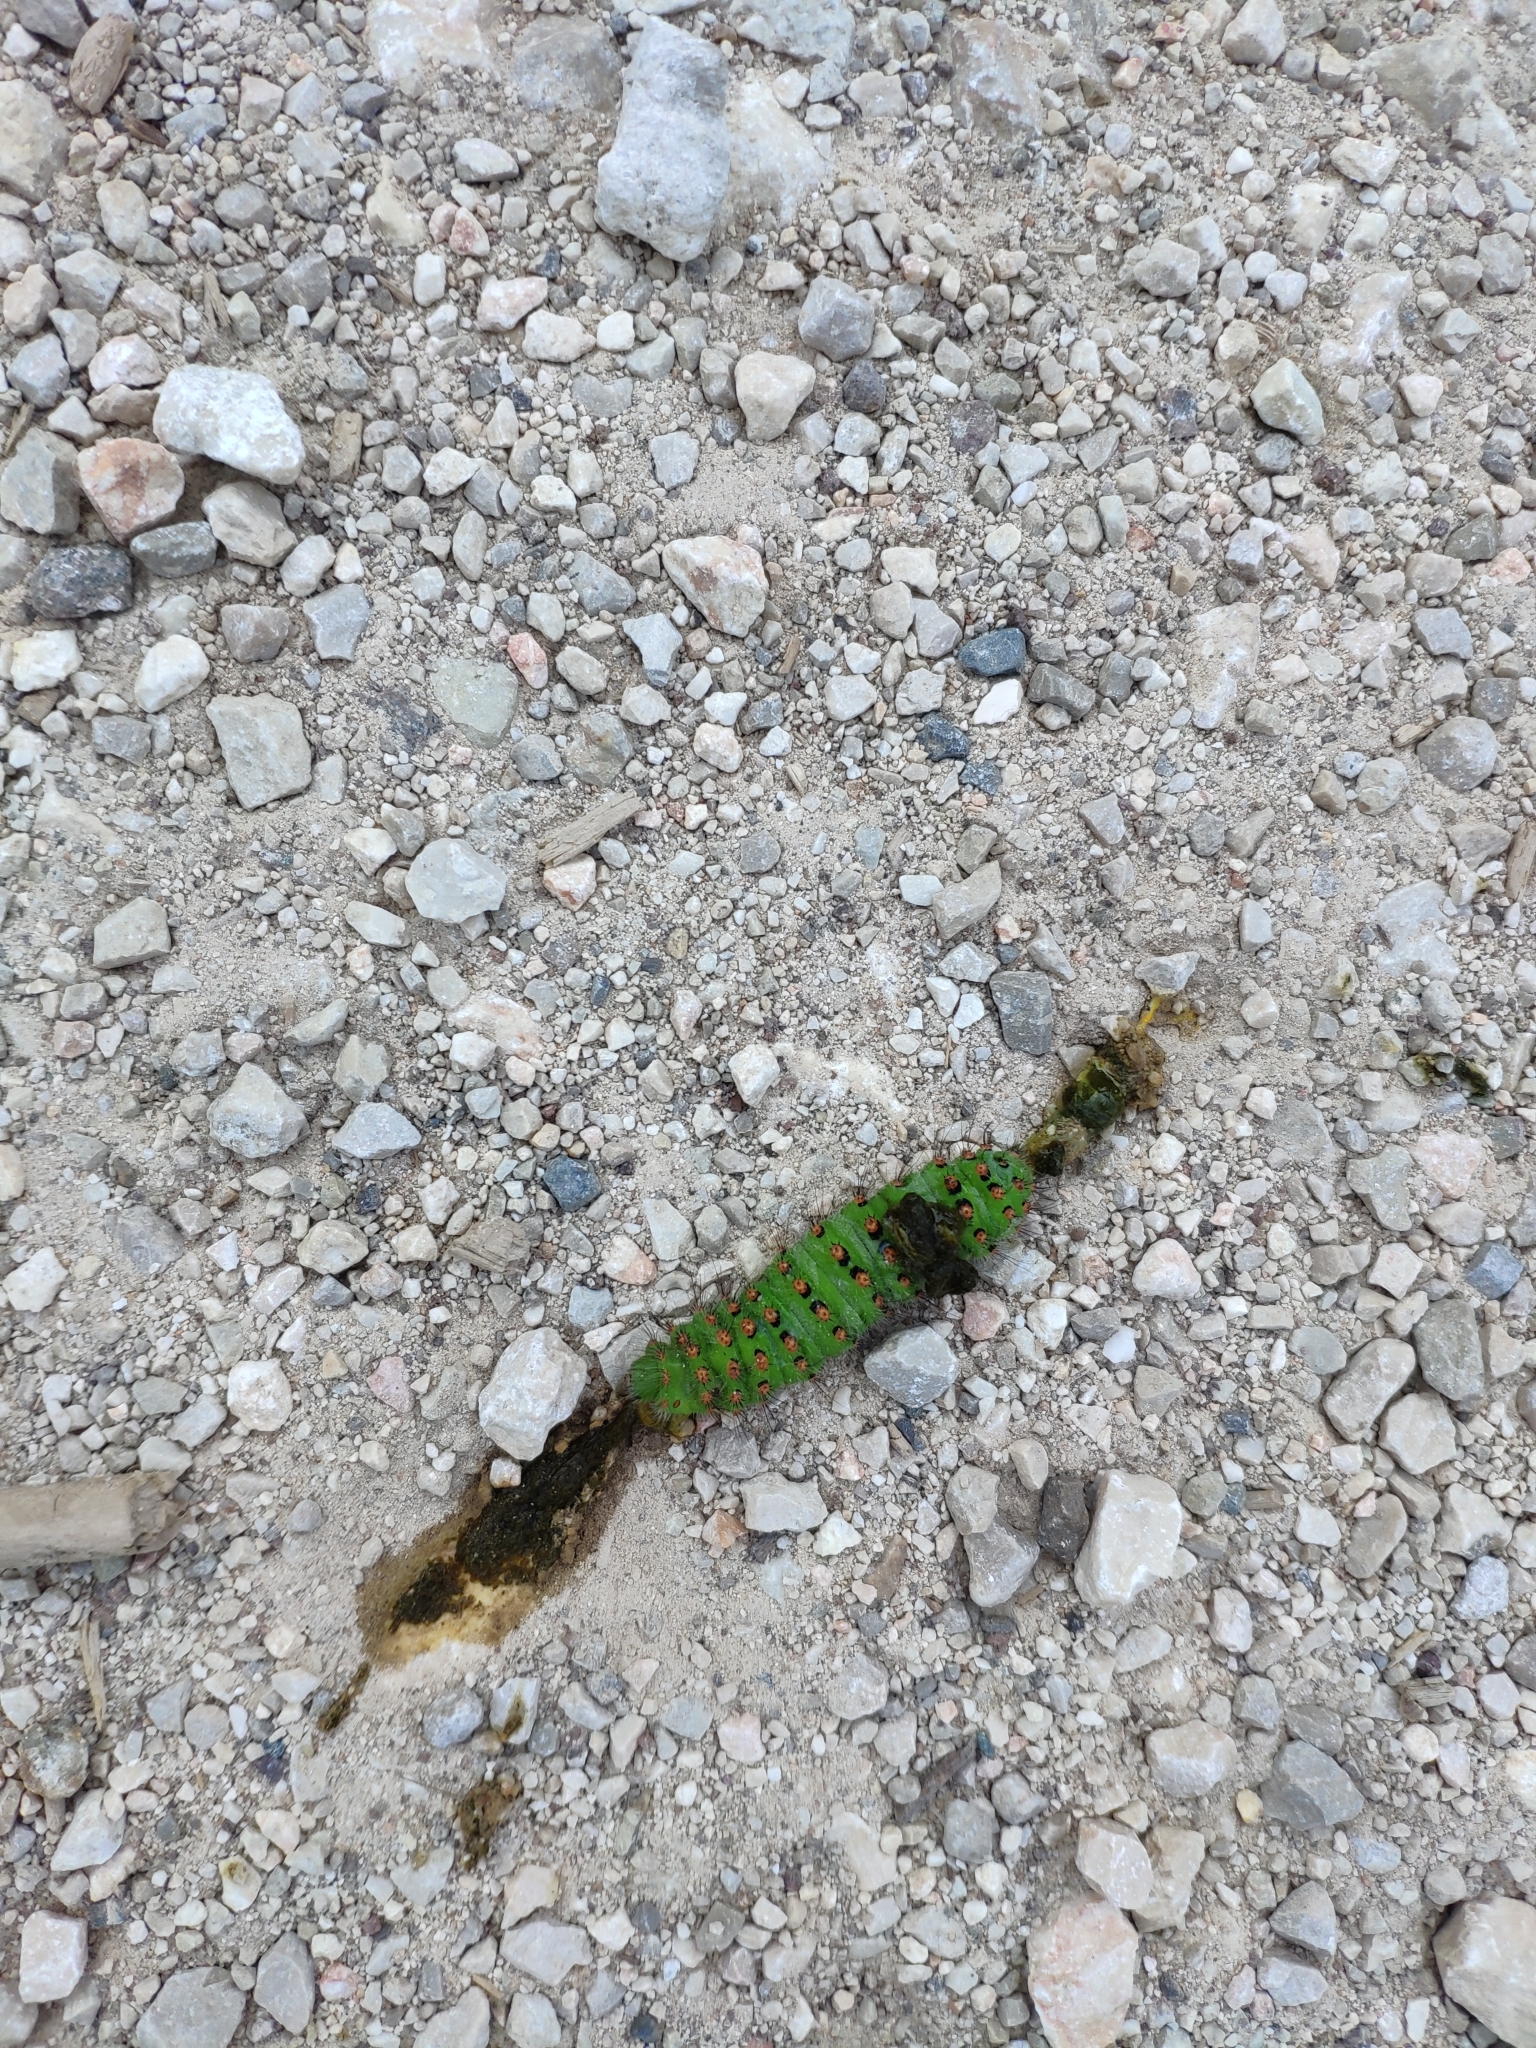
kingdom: Animalia
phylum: Arthropoda
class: Insecta
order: Lepidoptera
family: Saturniidae
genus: Saturnia
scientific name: Saturnia pavoniella
